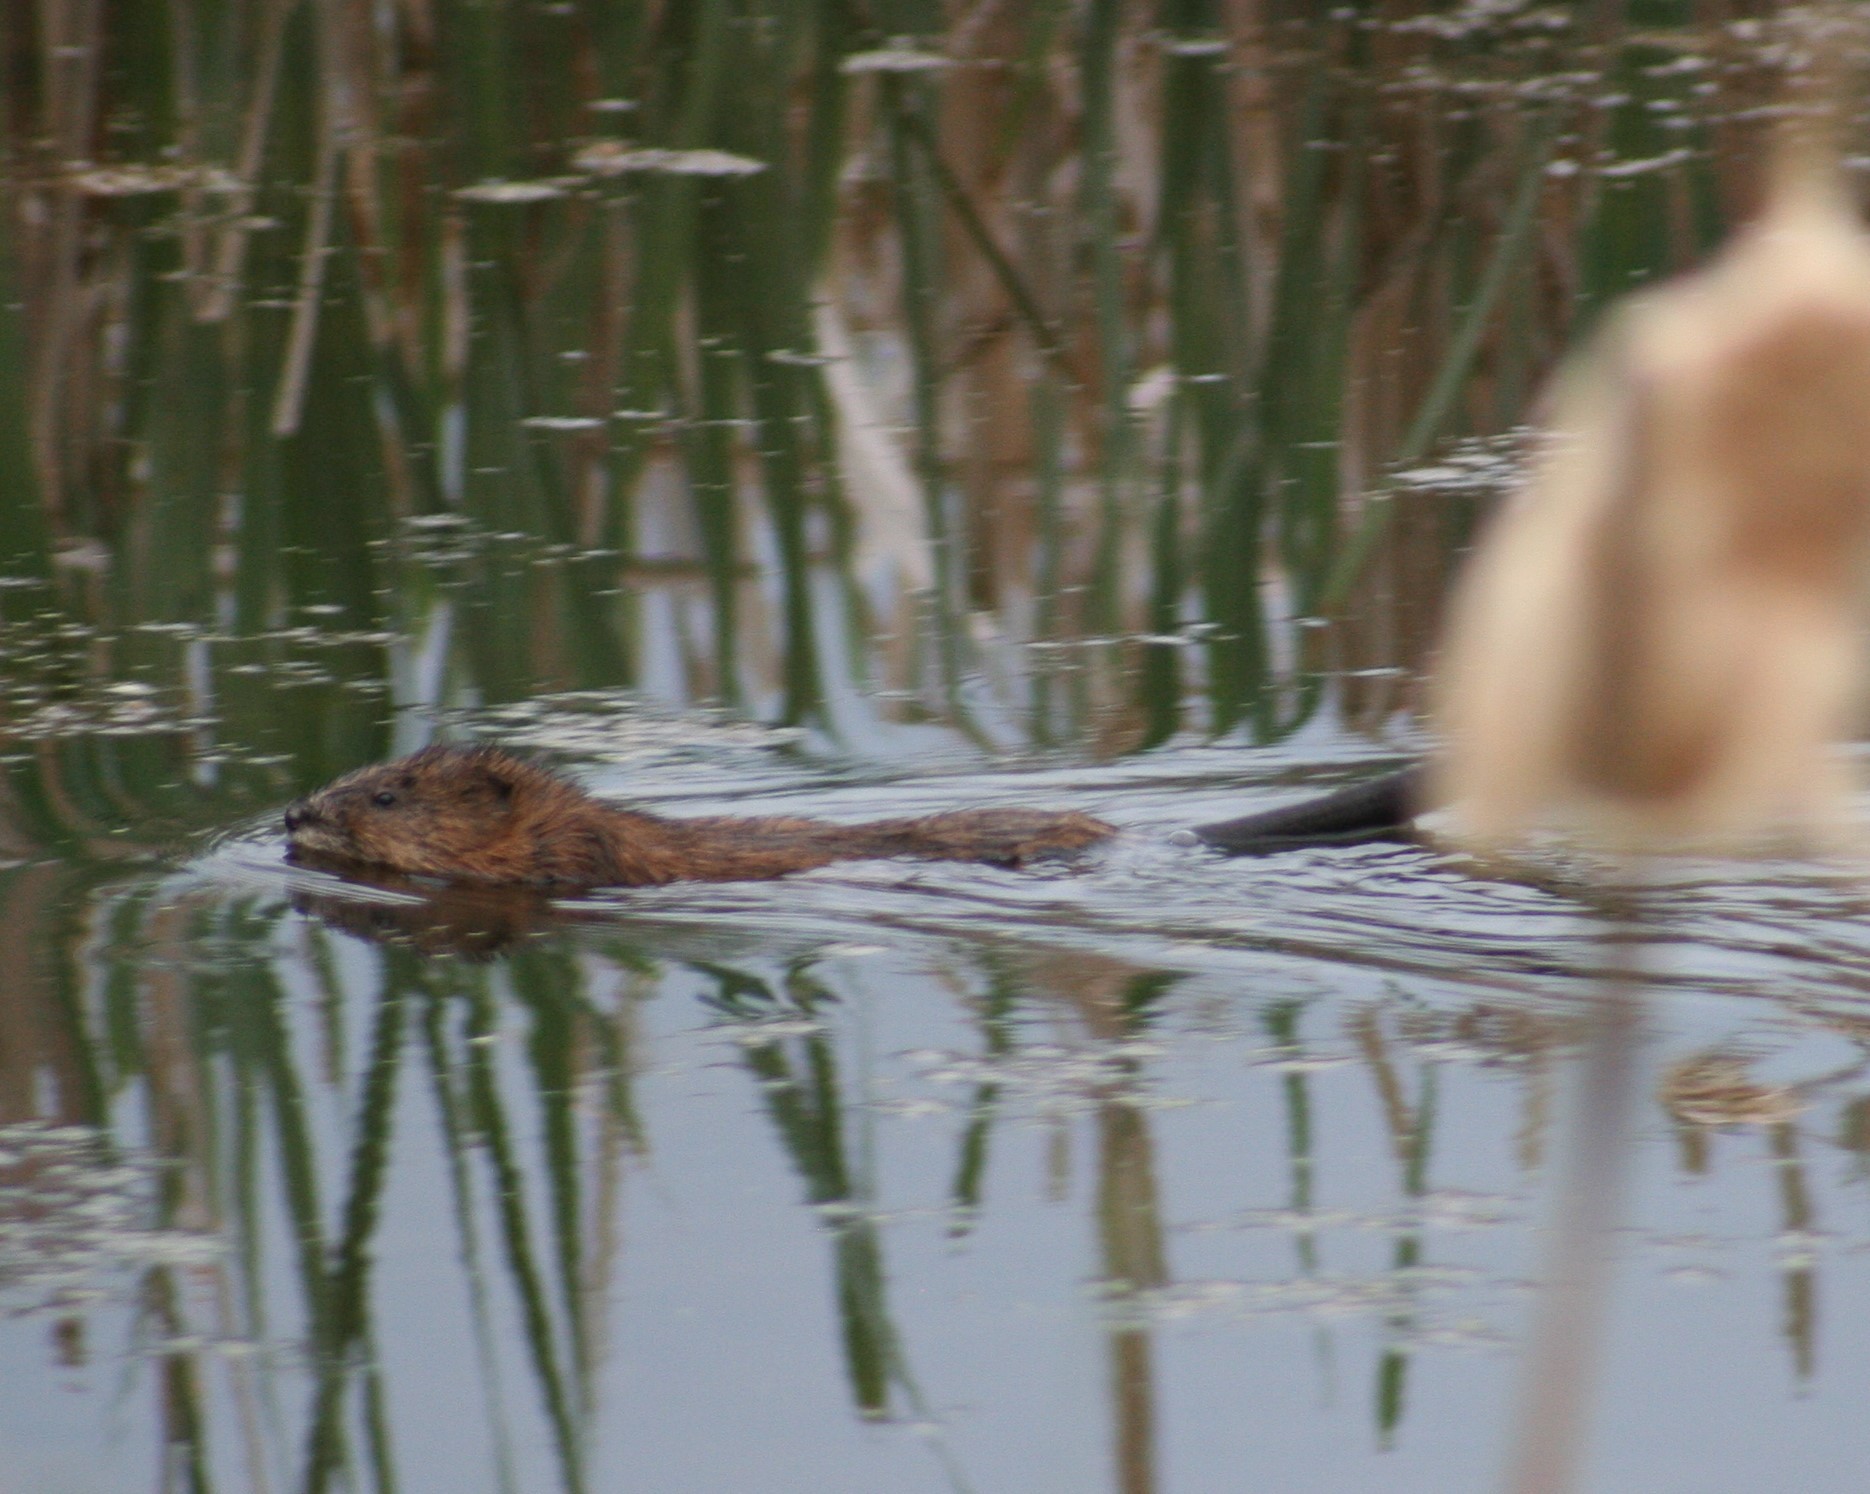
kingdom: Animalia
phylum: Chordata
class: Mammalia
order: Rodentia
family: Cricetidae
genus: Ondatra
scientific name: Ondatra zibethicus
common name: Muskrat
